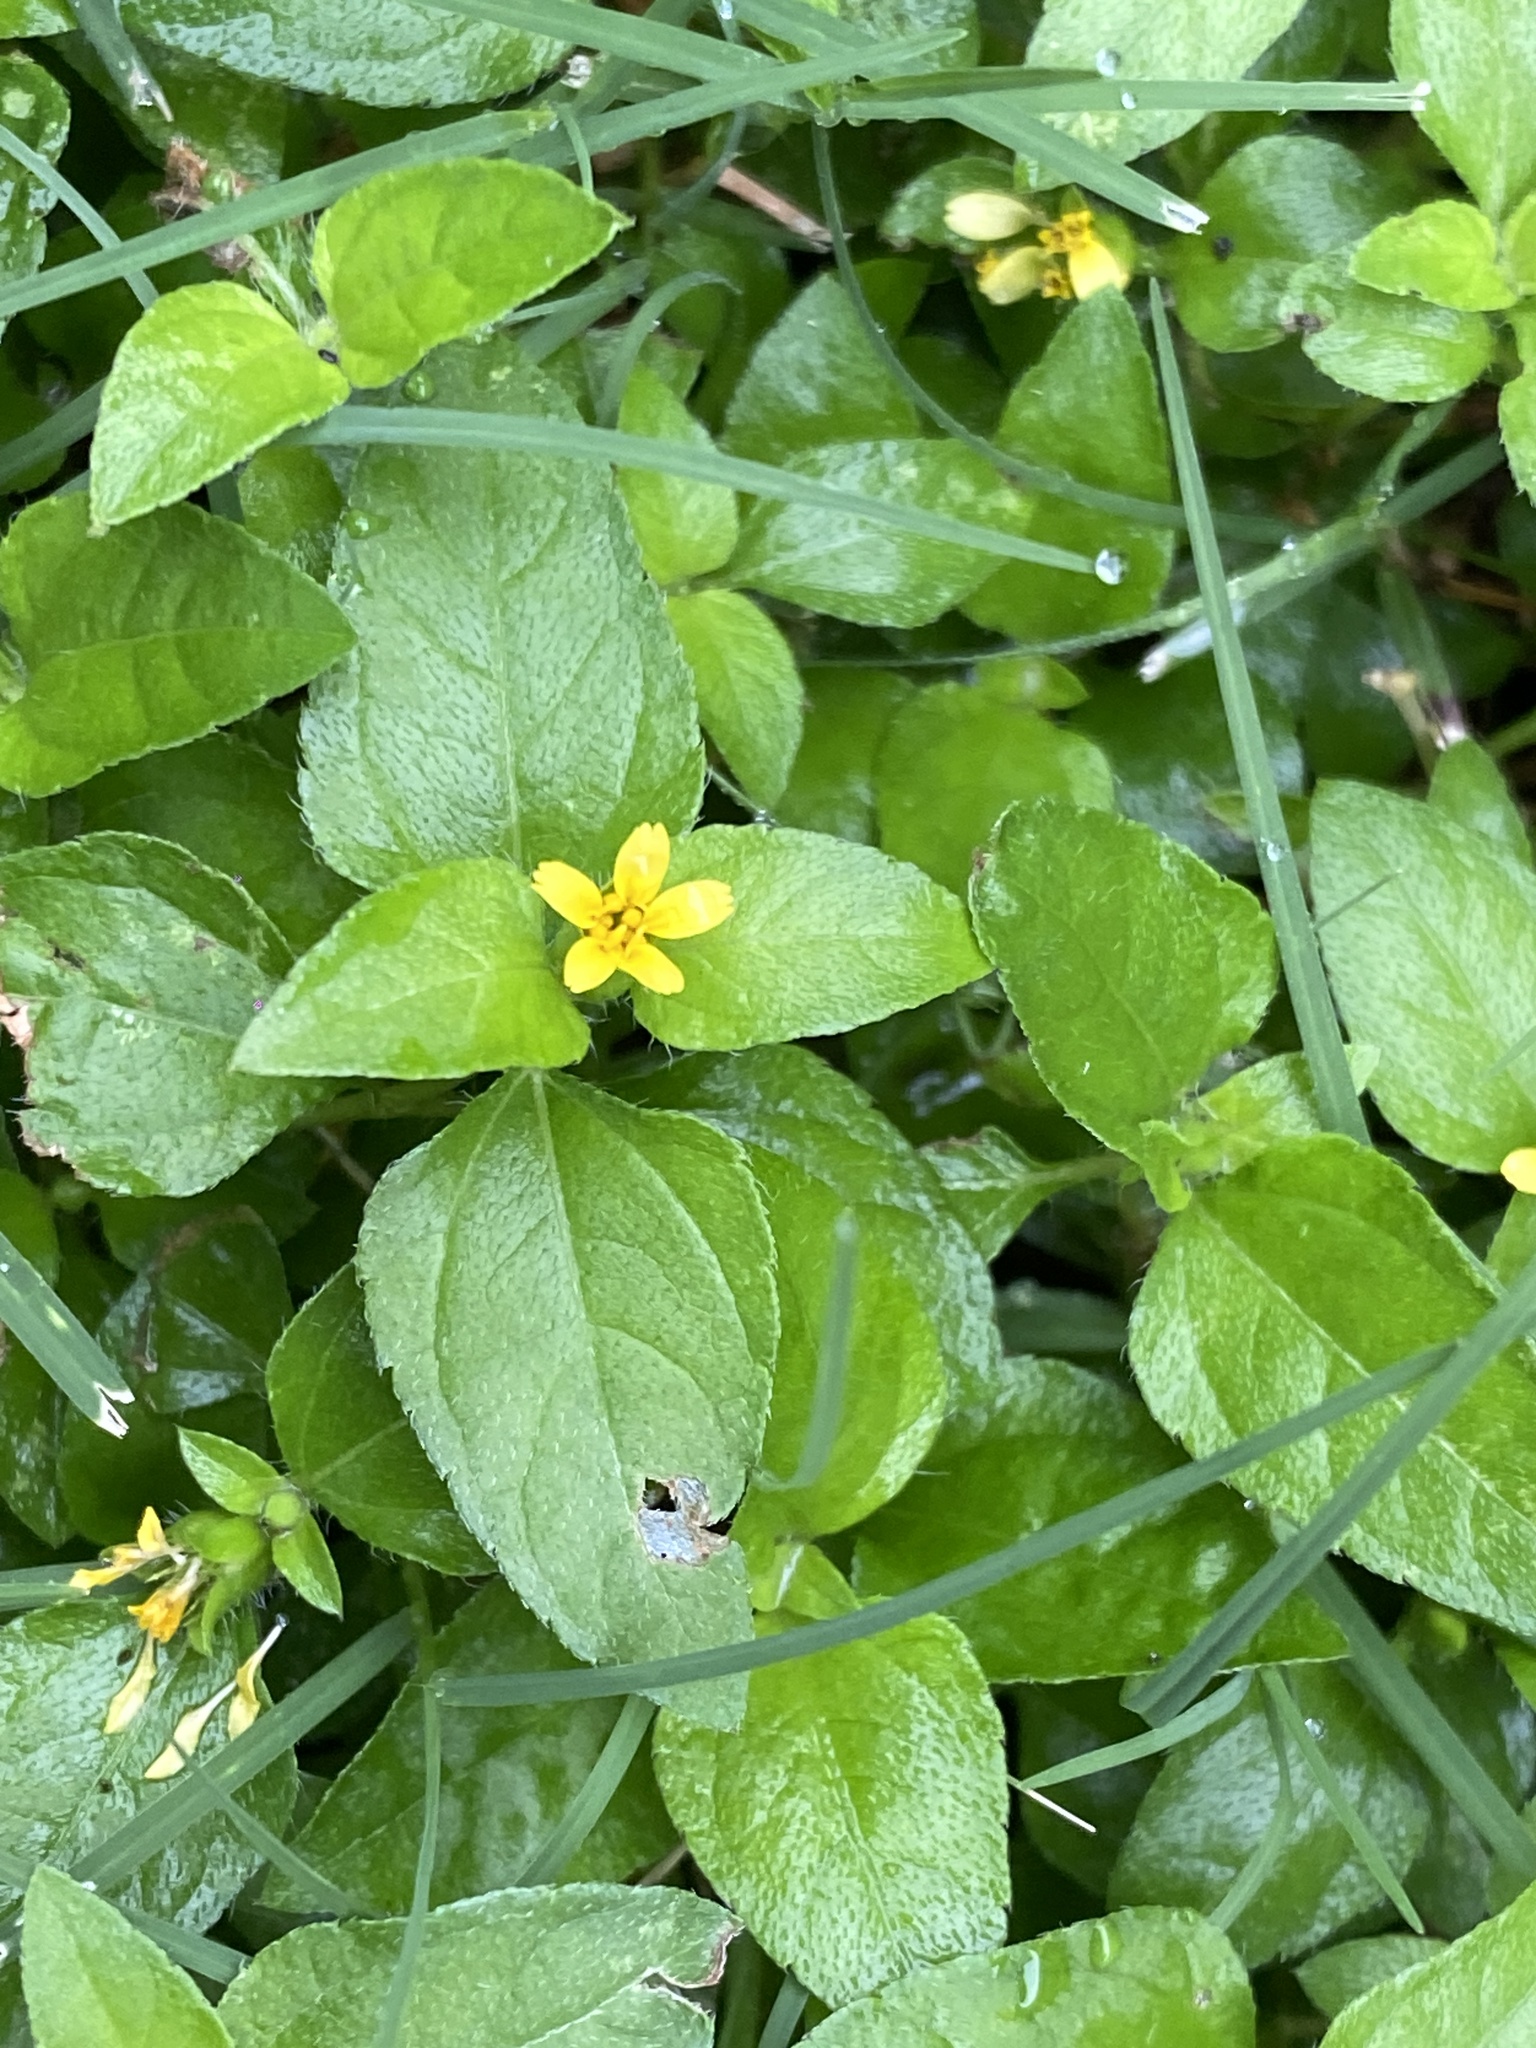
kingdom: Plantae
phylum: Tracheophyta
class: Magnoliopsida
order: Asterales
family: Asteraceae
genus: Calyptocarpus
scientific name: Calyptocarpus vialis
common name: Straggler daisy
